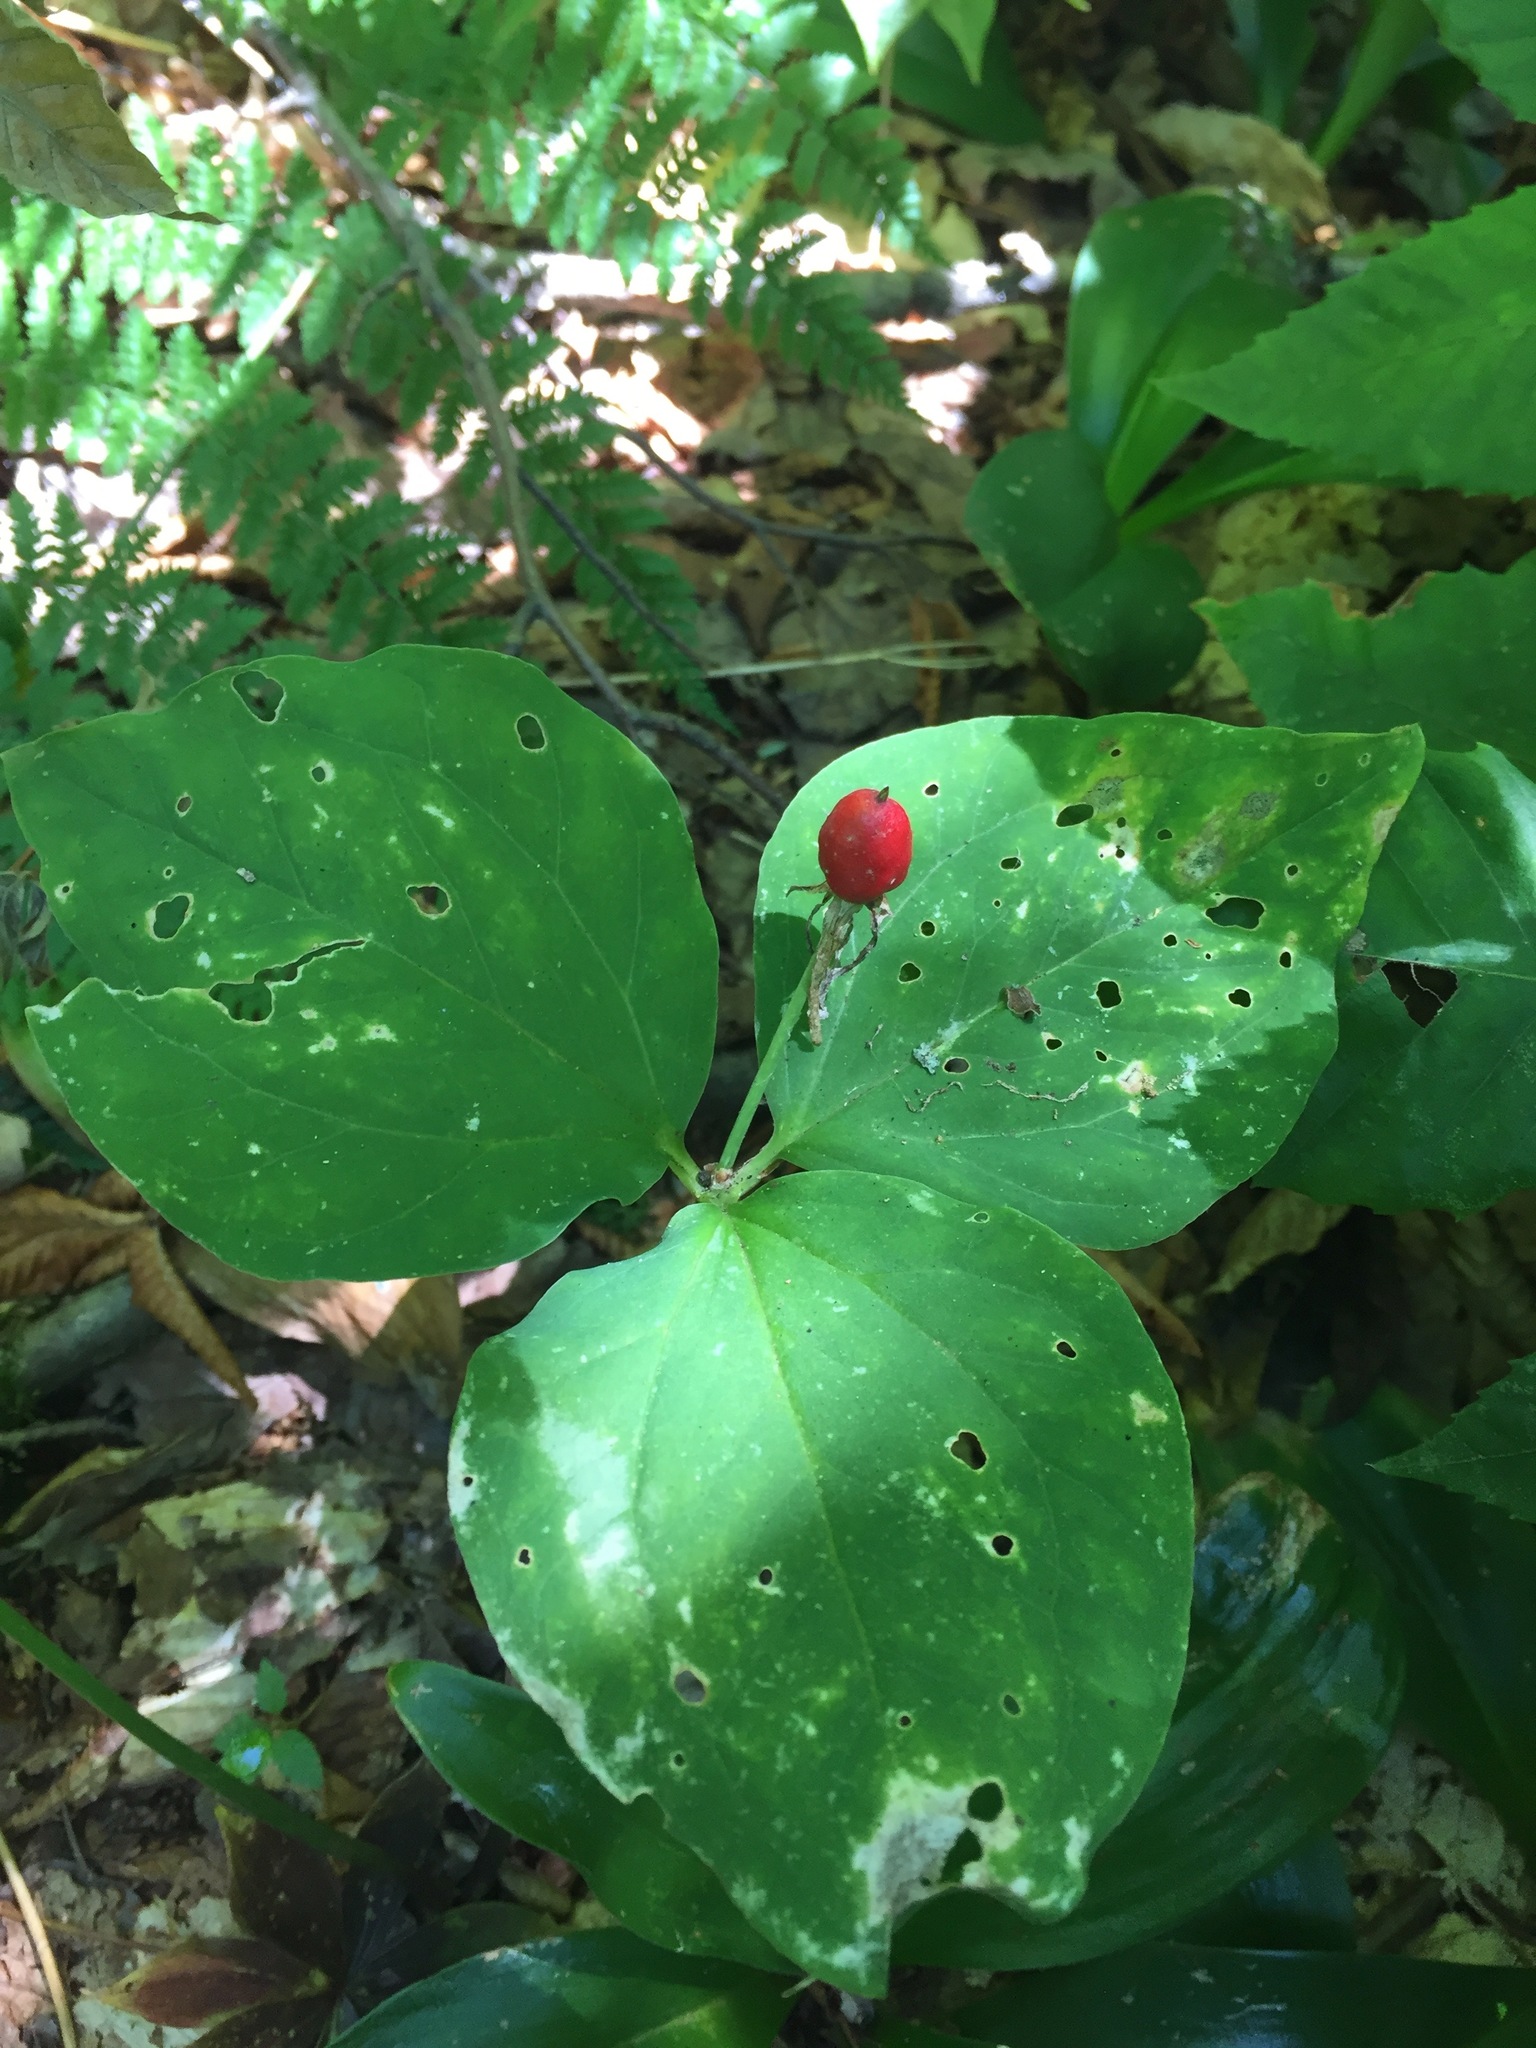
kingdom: Plantae
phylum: Tracheophyta
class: Liliopsida
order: Liliales
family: Melanthiaceae
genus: Trillium
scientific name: Trillium undulatum
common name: Paint trillium
